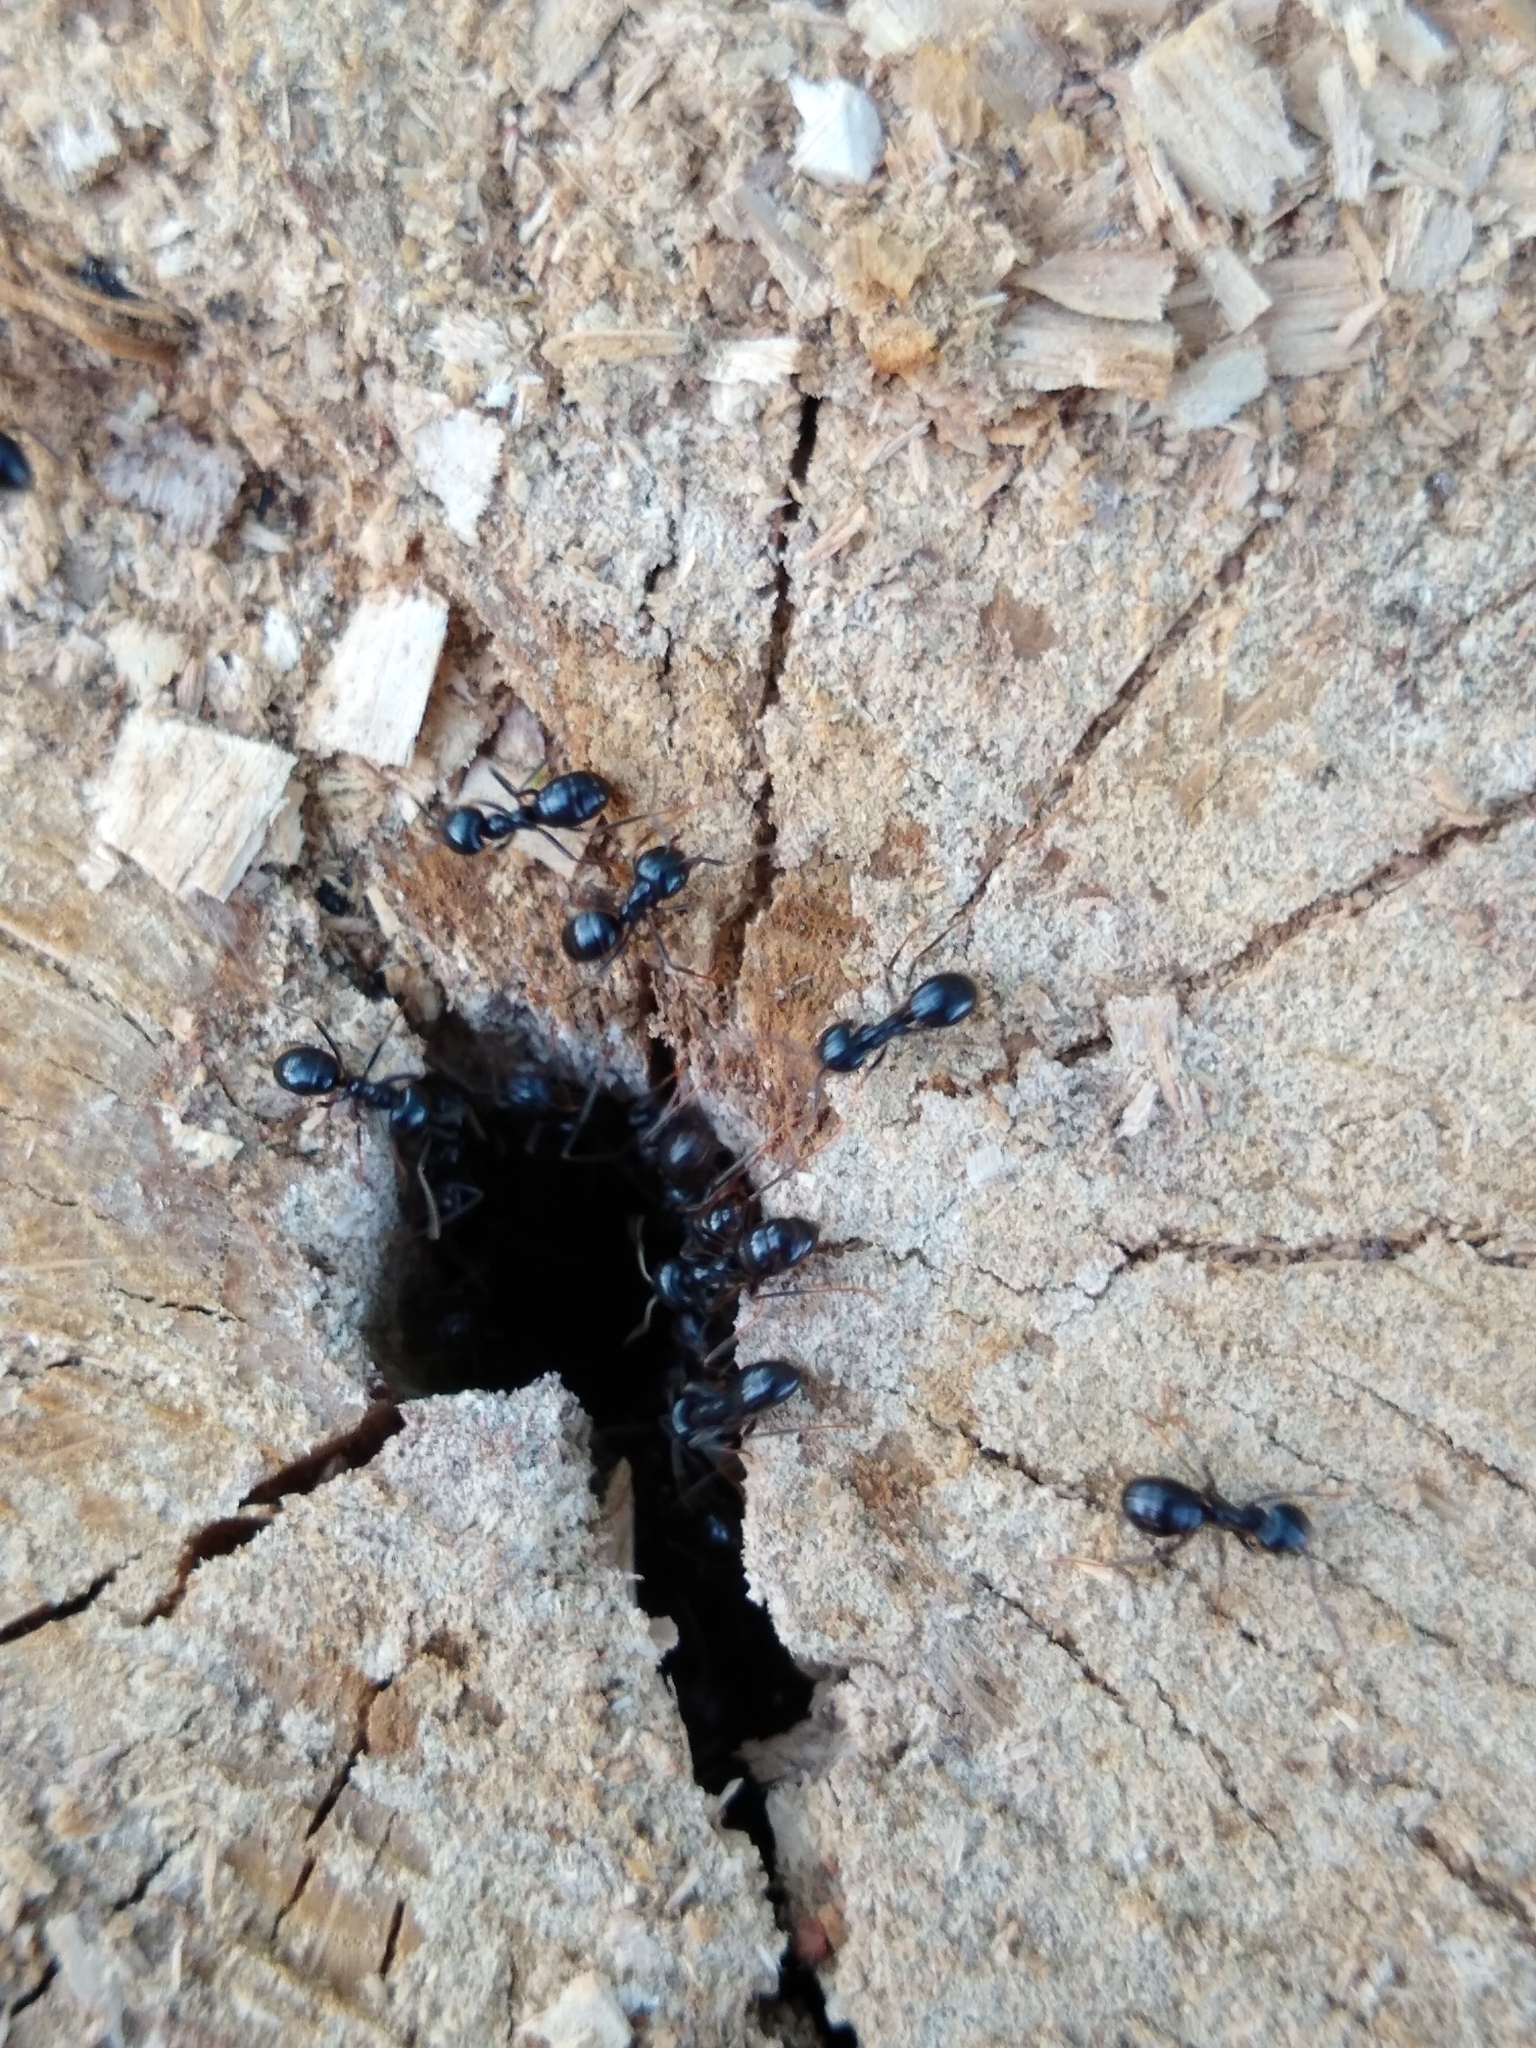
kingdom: Animalia
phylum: Arthropoda
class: Insecta
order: Hymenoptera
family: Formicidae
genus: Lasius
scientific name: Lasius fuliginosus
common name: Jet ant
